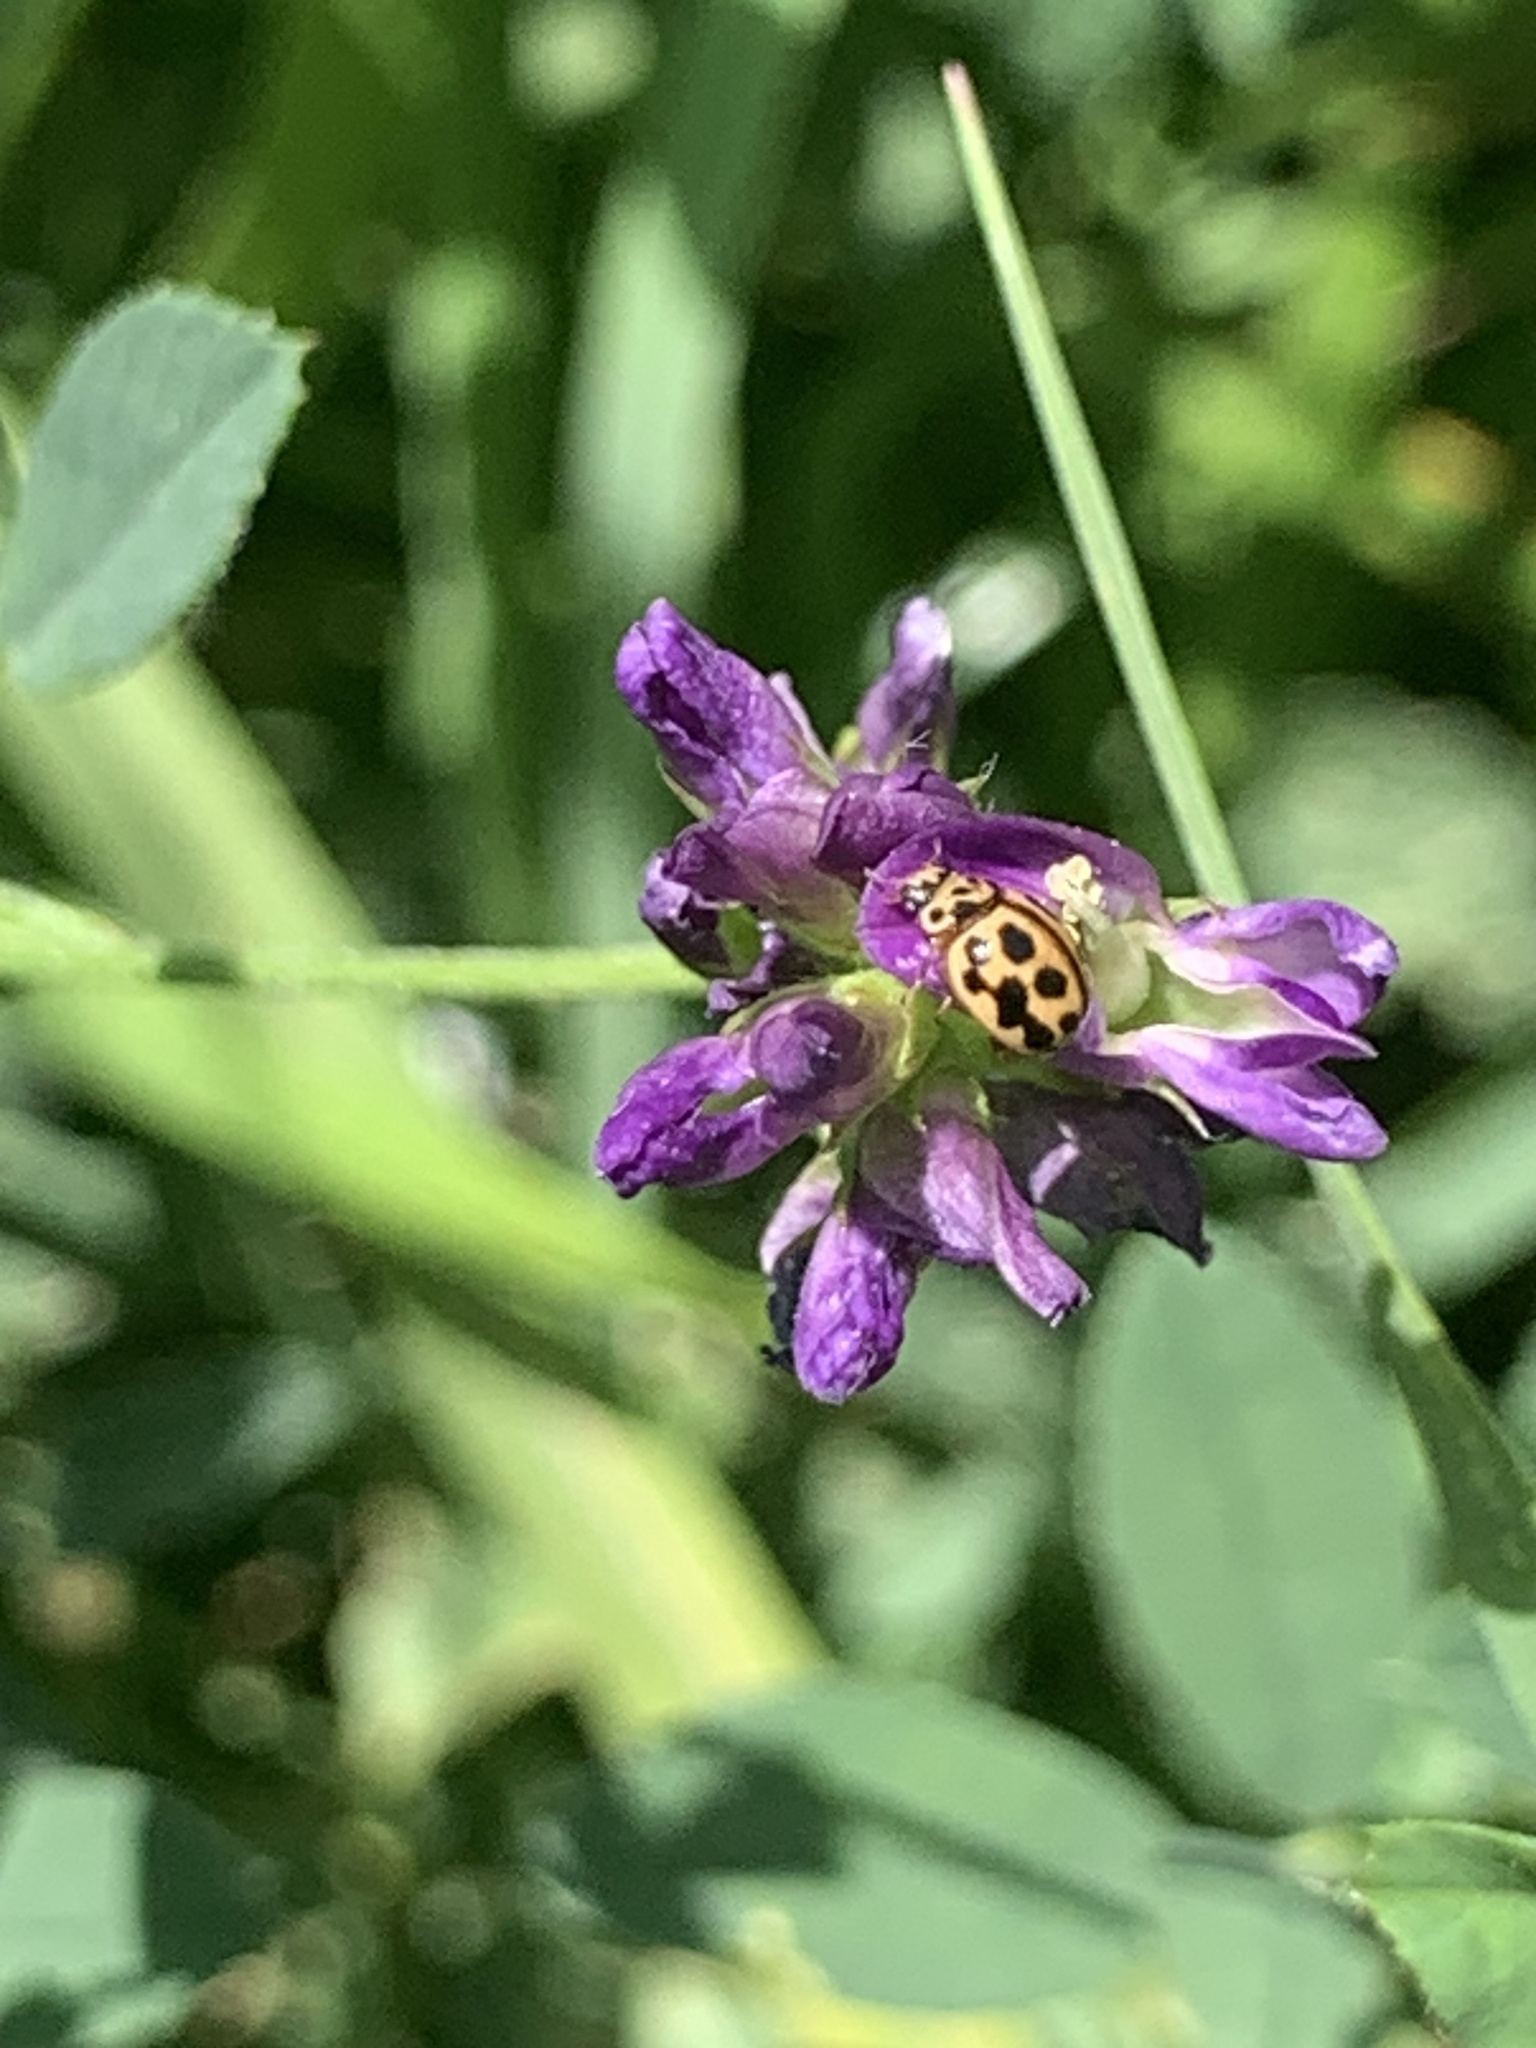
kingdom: Animalia
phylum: Arthropoda
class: Insecta
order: Coleoptera
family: Coccinellidae
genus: Tytthaspis
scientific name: Tytthaspis sedecimpunctata
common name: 16-spot ladybird
